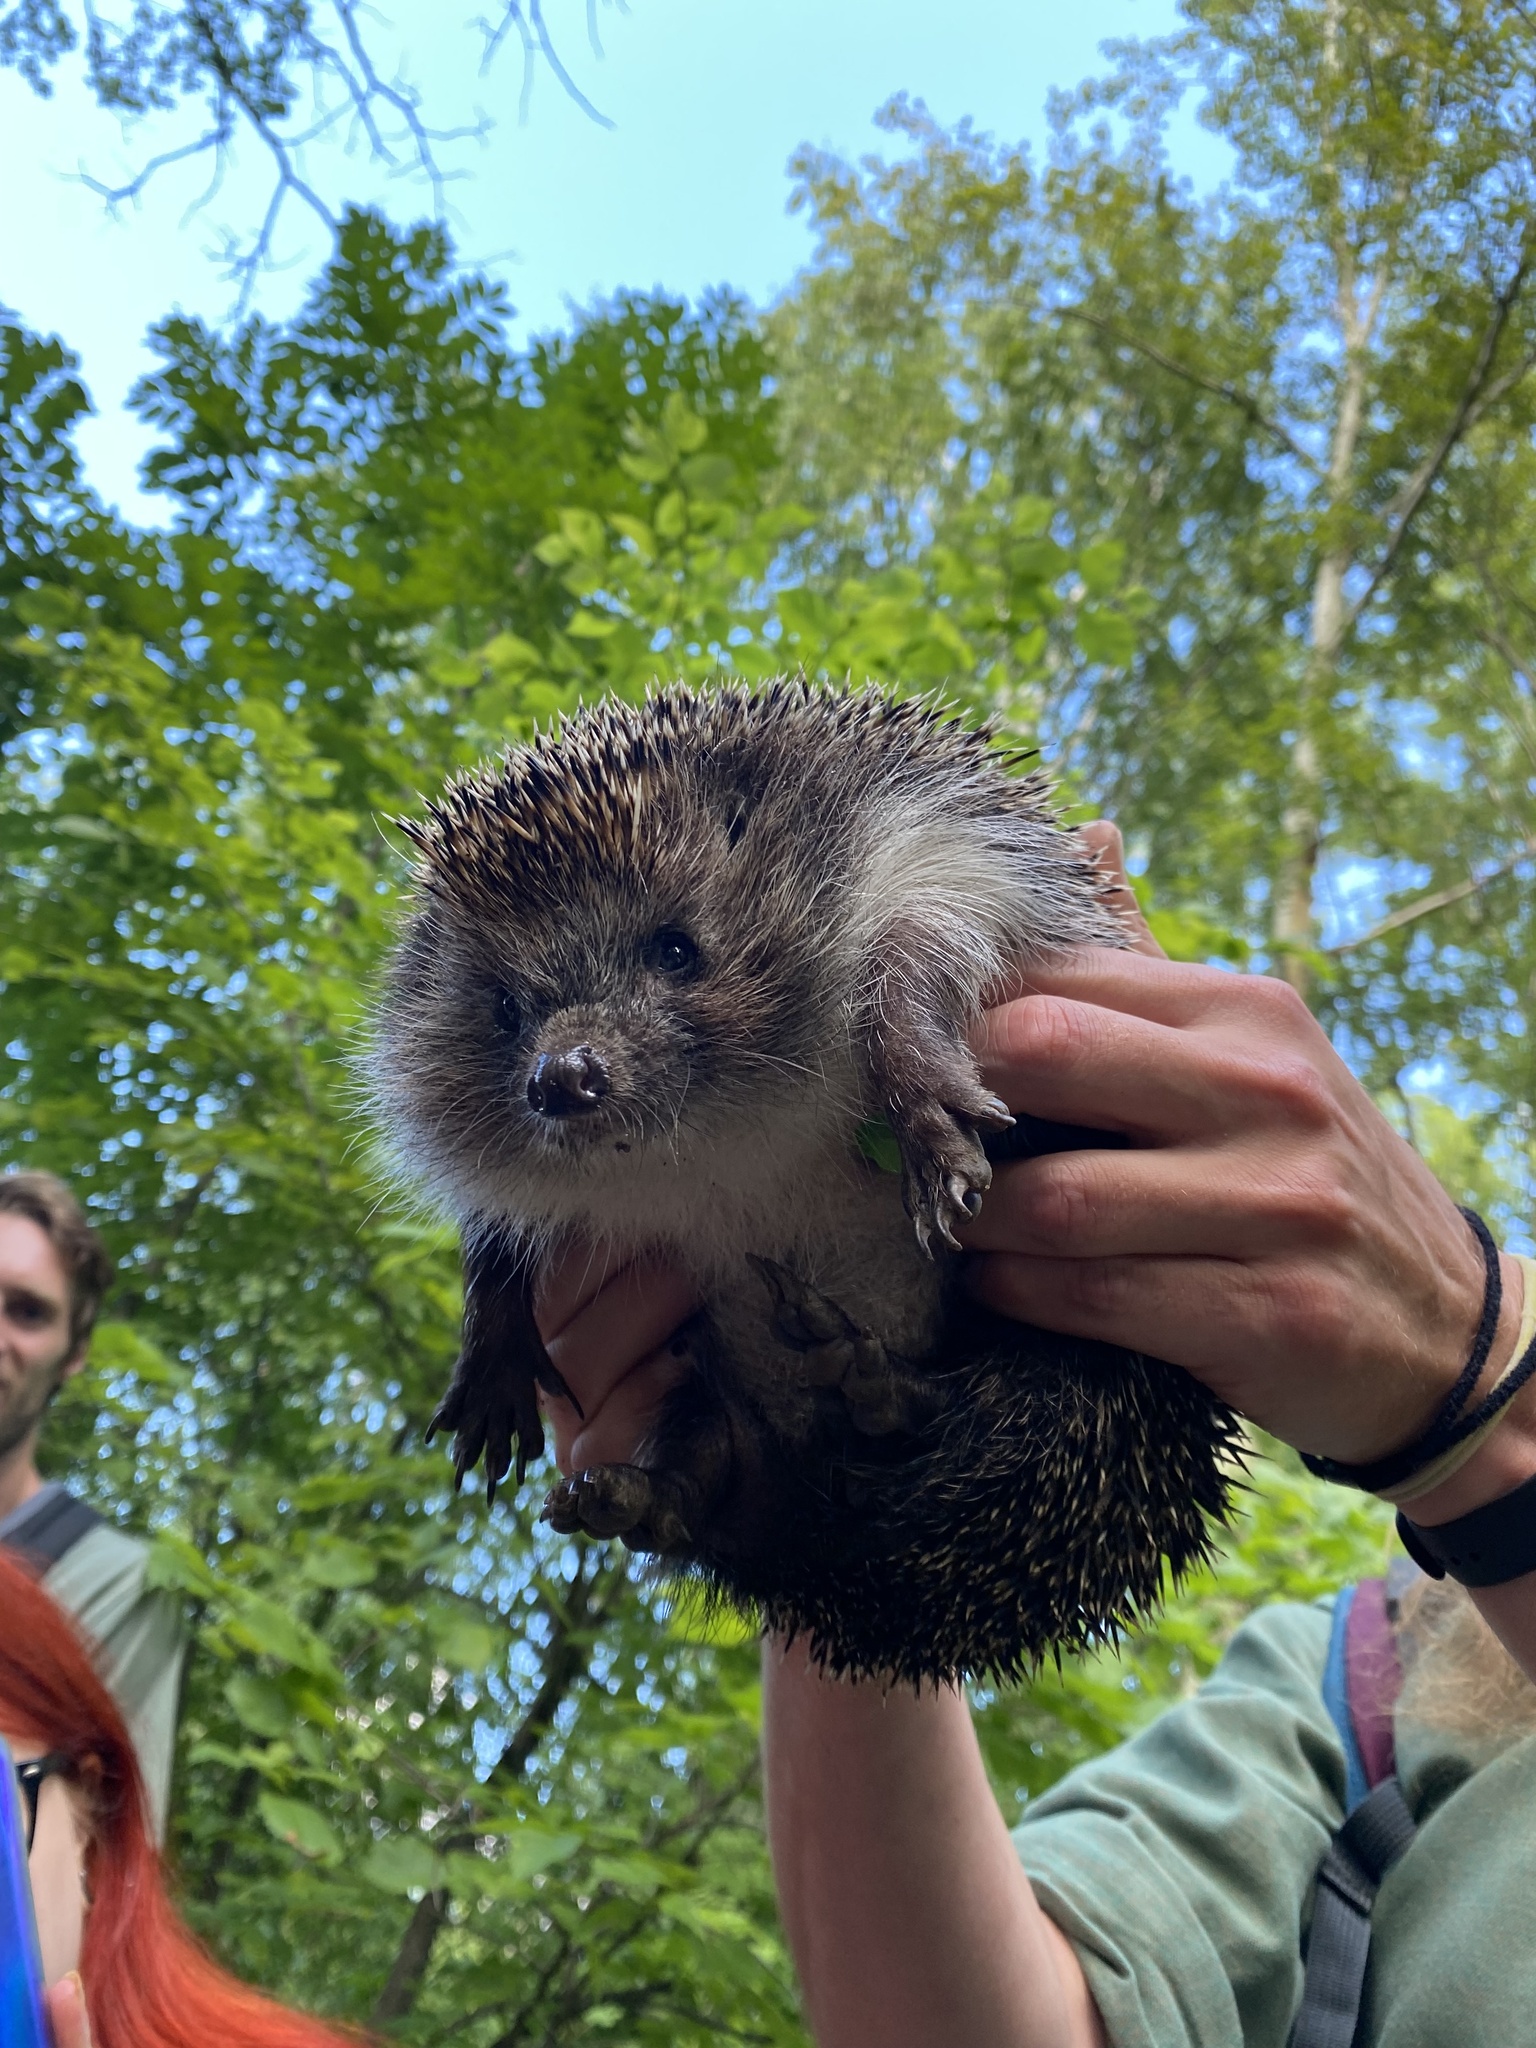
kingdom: Animalia
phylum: Chordata
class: Mammalia
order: Erinaceomorpha
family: Erinaceidae
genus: Erinaceus
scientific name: Erinaceus roumanicus
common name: Northern white-breasted hedgehog
